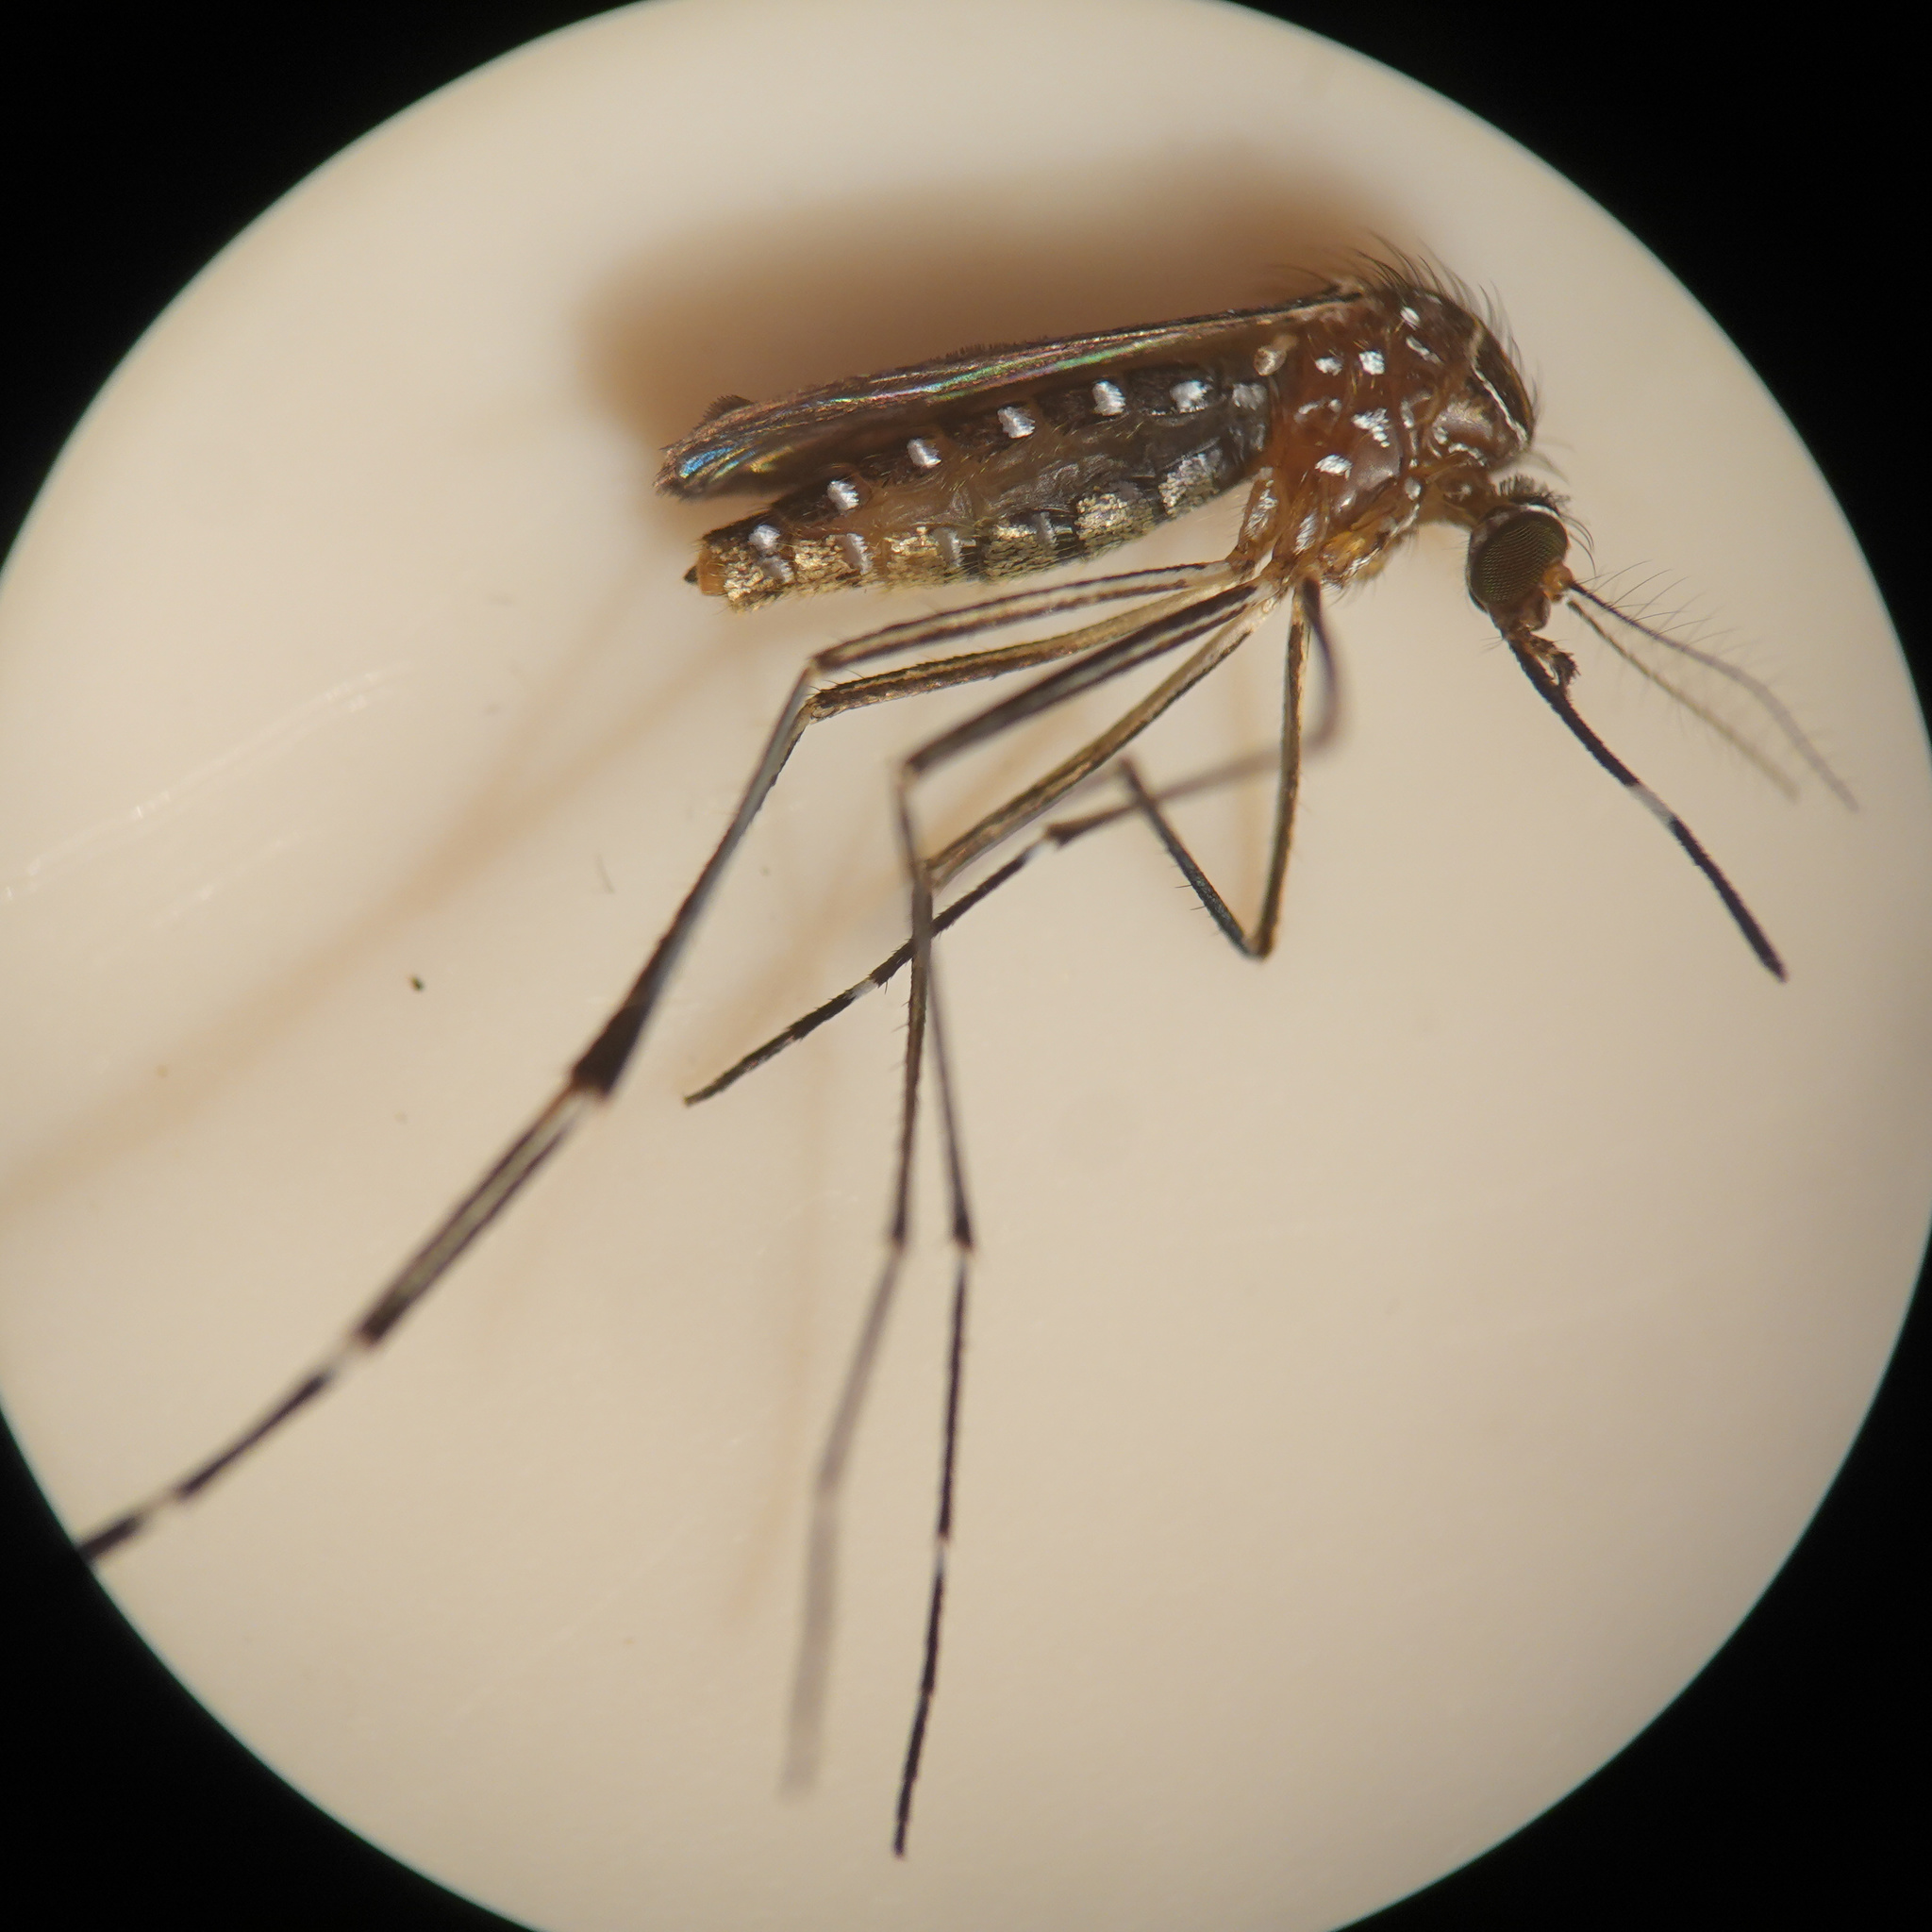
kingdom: Animalia
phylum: Arthropoda
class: Insecta
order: Diptera
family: Culicidae
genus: Aedes
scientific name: Aedes notoscriptus
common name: Australian backyard mosquito
